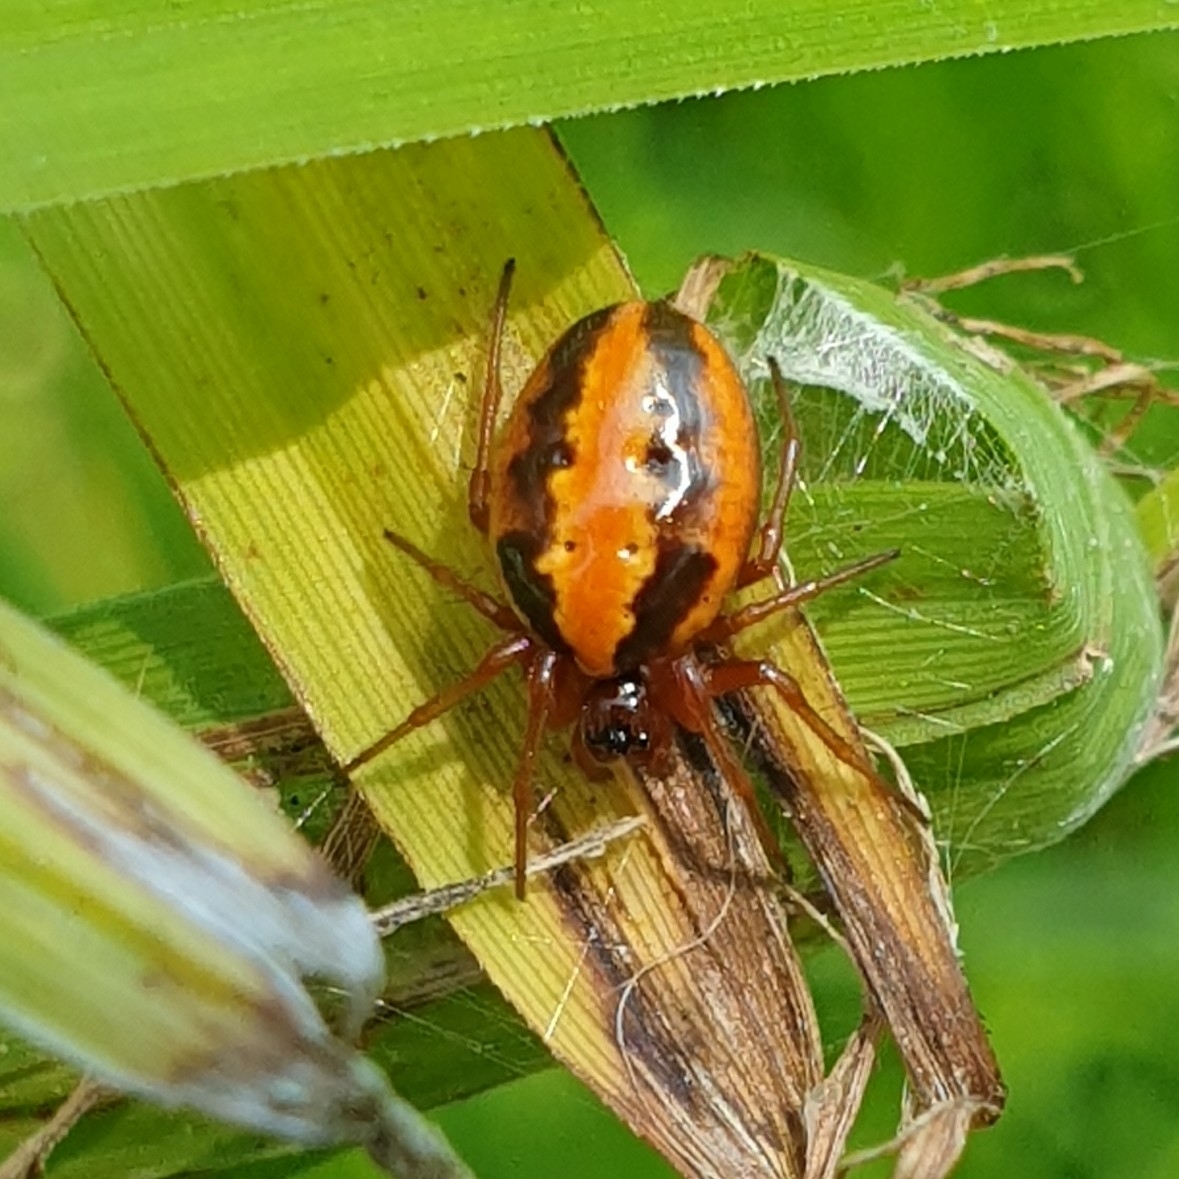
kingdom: Animalia
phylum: Arthropoda
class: Arachnida
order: Araneae
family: Araneidae
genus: Hypsosinga
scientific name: Hypsosinga heri
